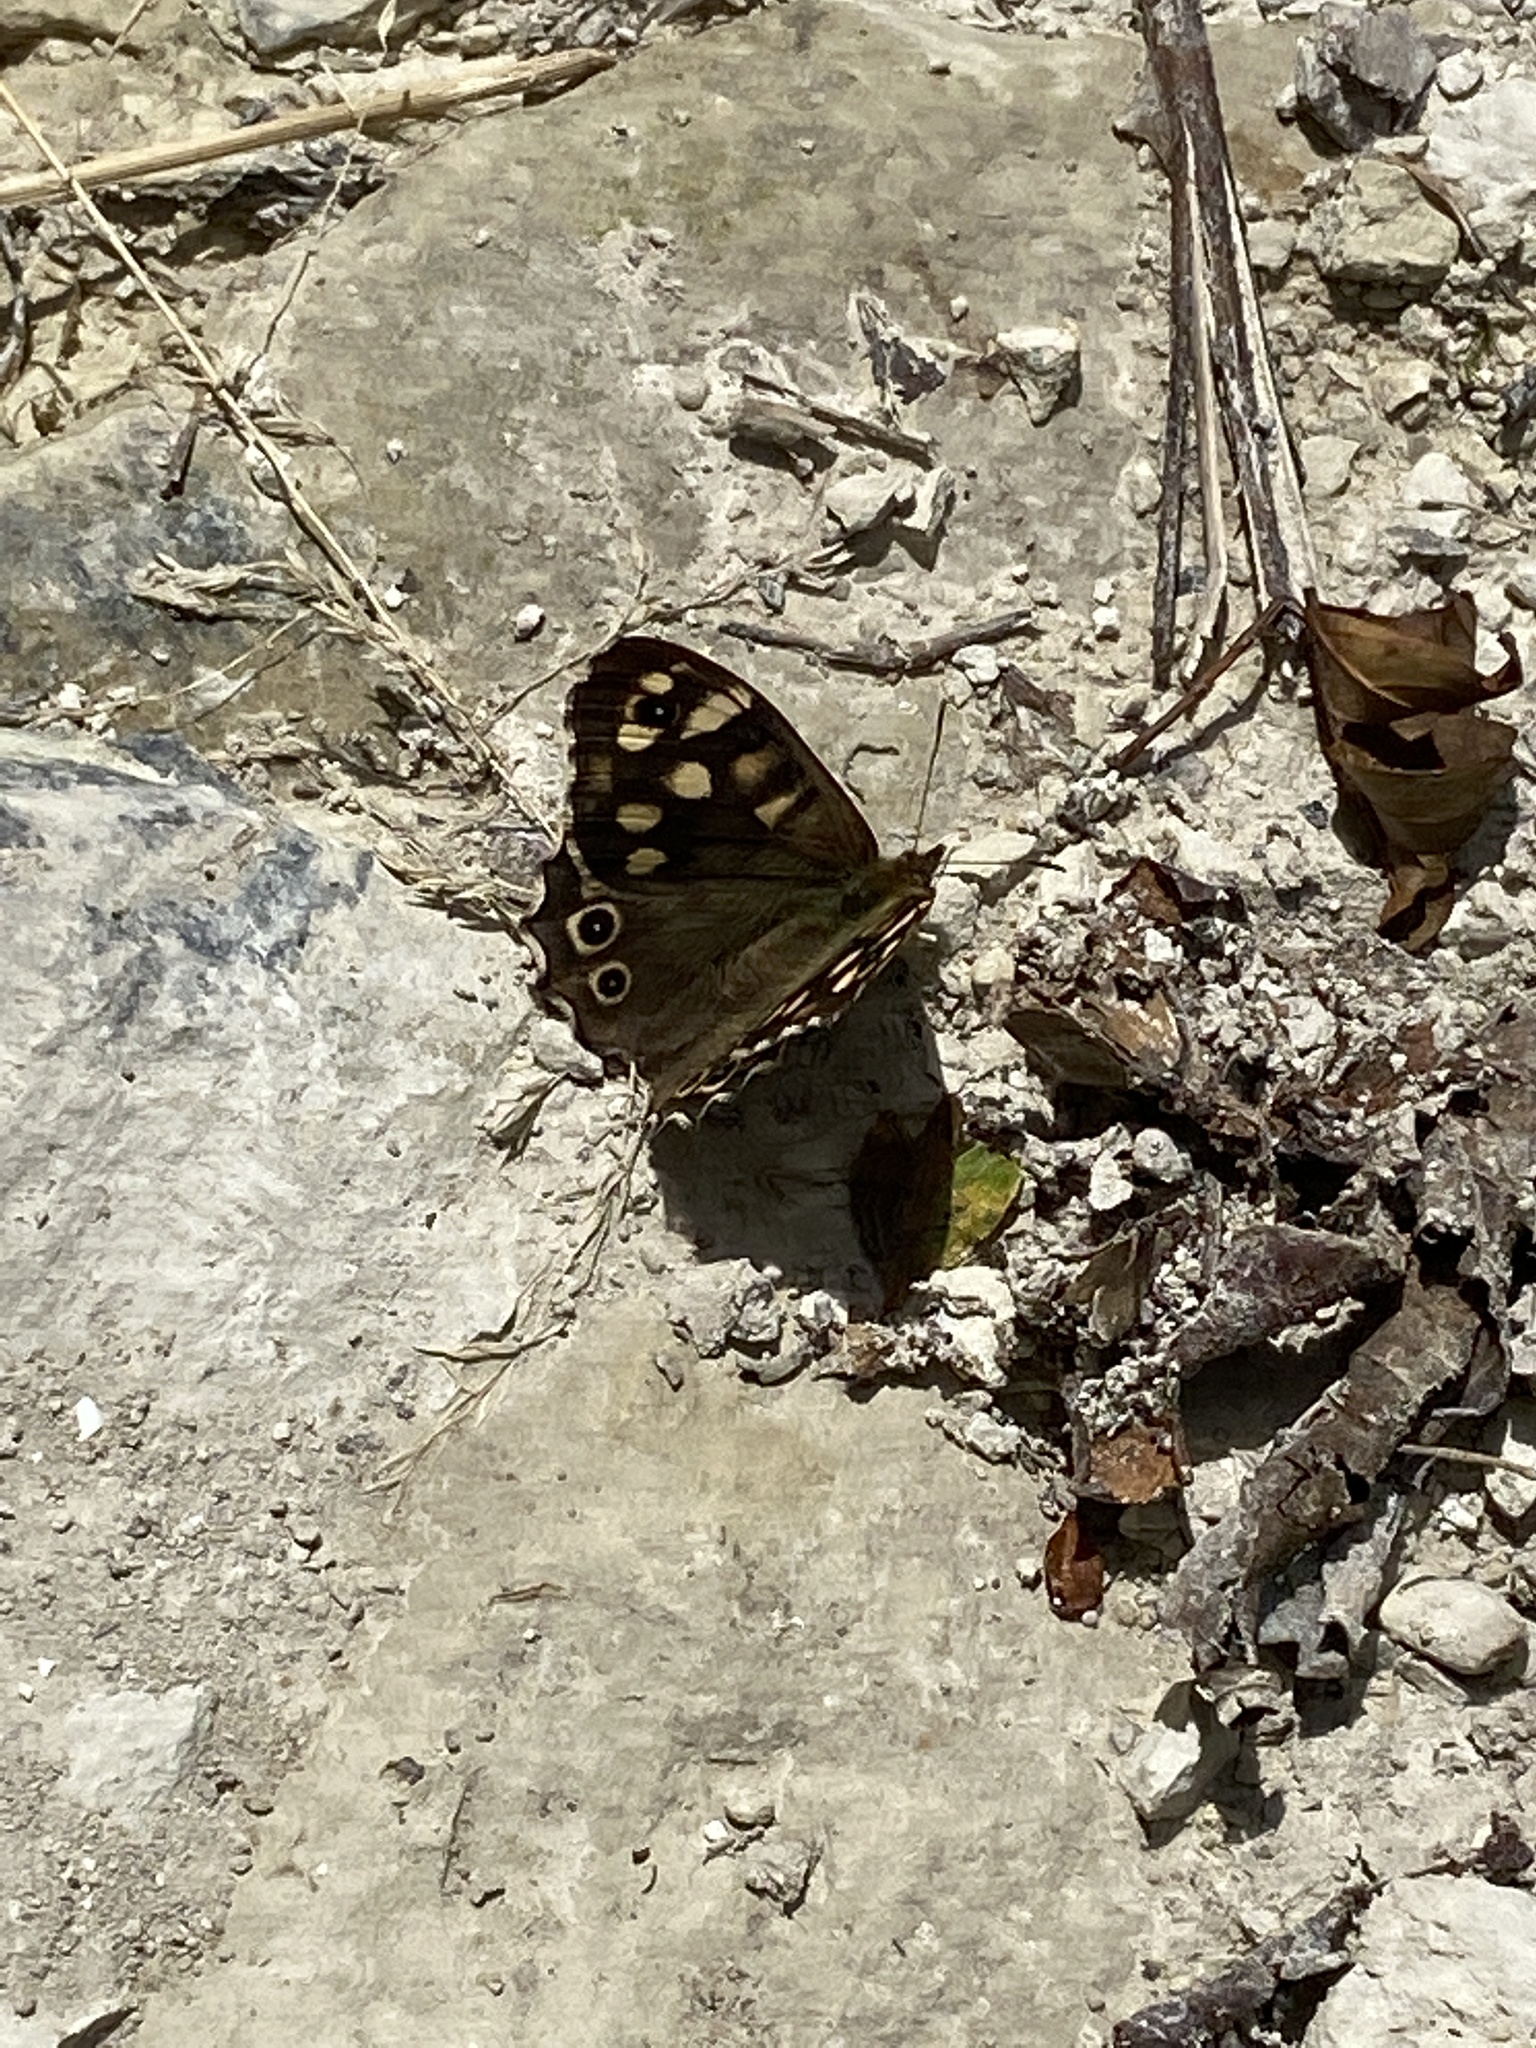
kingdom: Animalia
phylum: Arthropoda
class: Insecta
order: Lepidoptera
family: Nymphalidae
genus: Pararge
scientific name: Pararge aegeria
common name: Speckled wood
